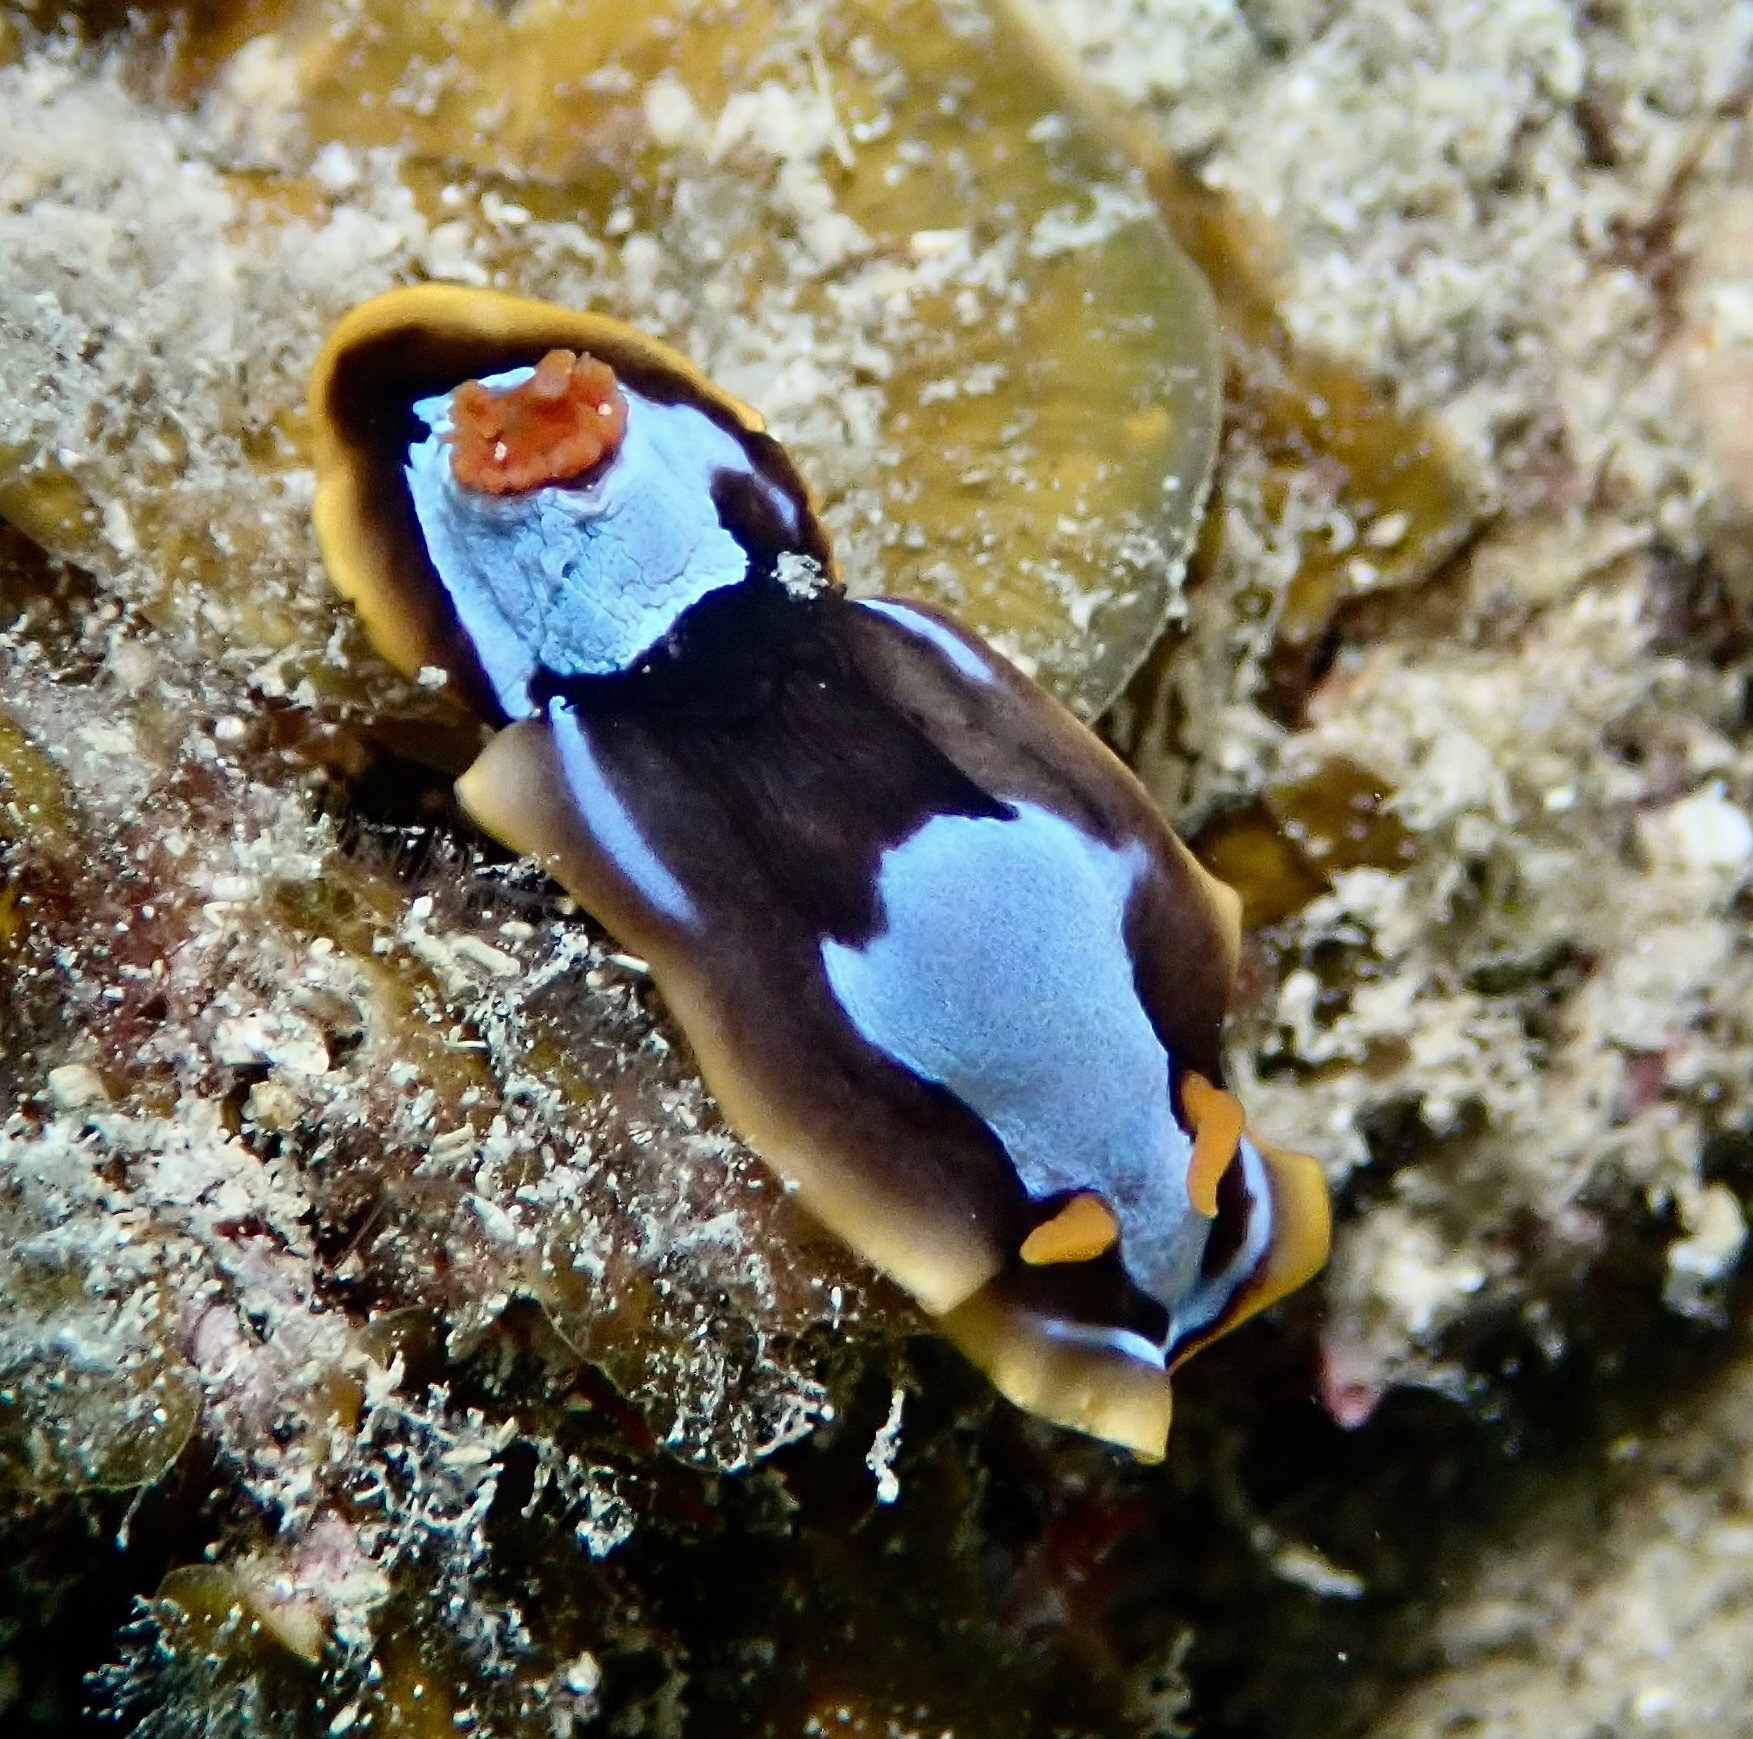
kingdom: Animalia
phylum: Mollusca
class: Gastropoda
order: Nudibranchia
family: Chromodorididae
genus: Chromodoris
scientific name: Chromodoris westraliensis
